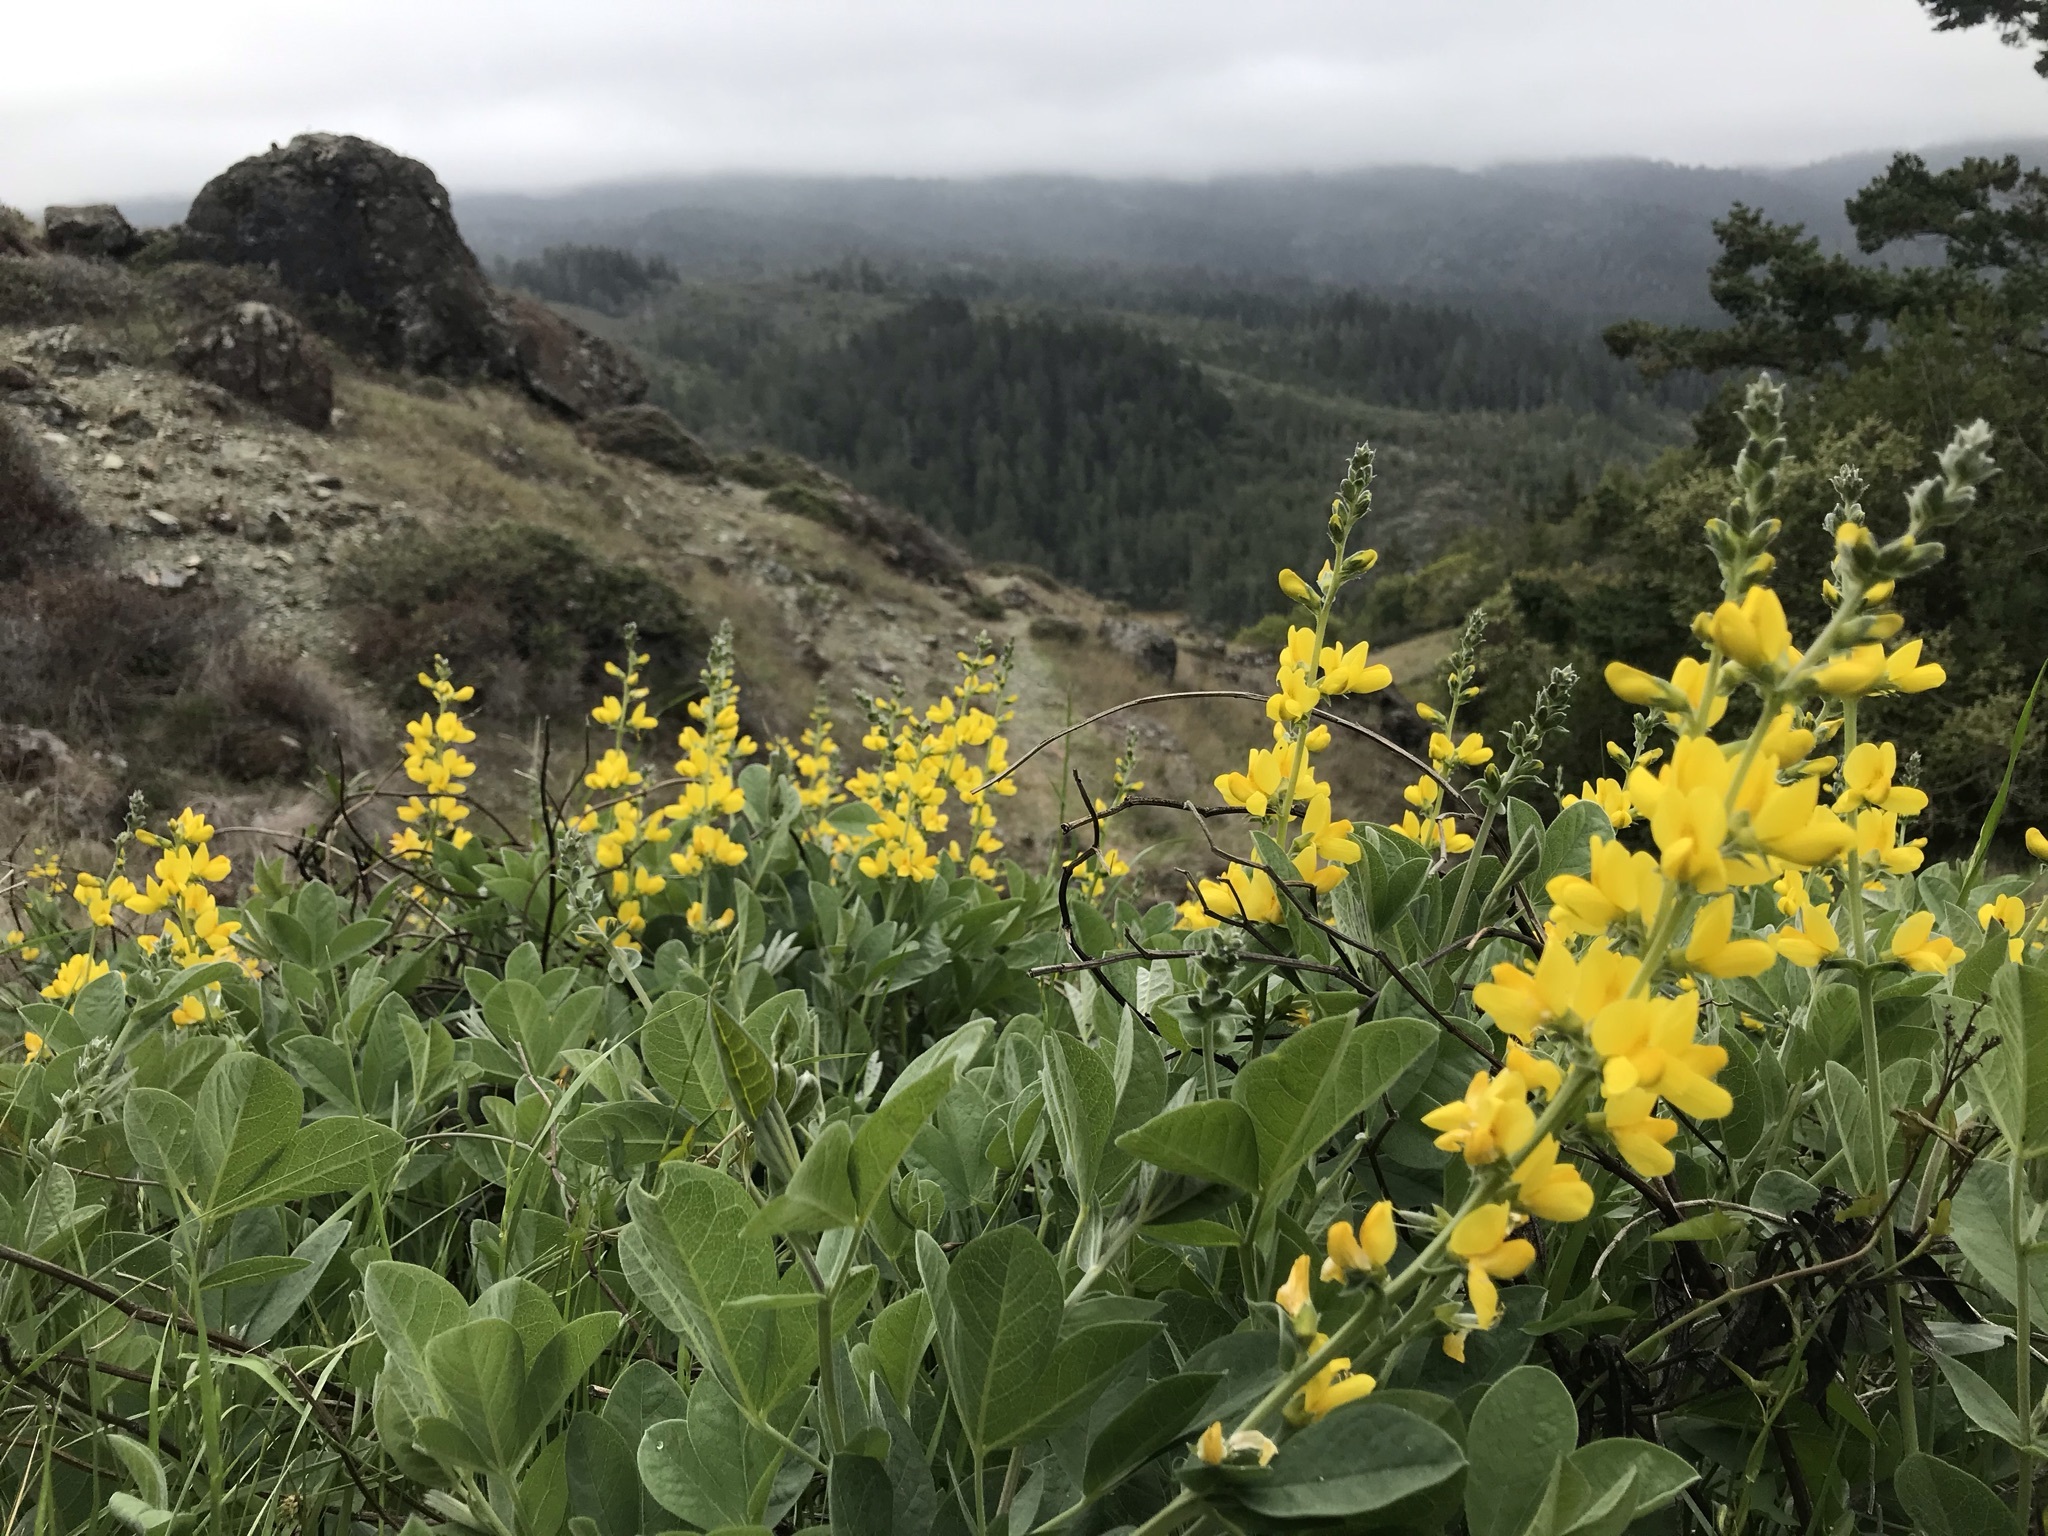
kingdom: Plantae
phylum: Tracheophyta
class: Magnoliopsida
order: Fabales
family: Fabaceae
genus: Thermopsis
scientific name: Thermopsis californica
